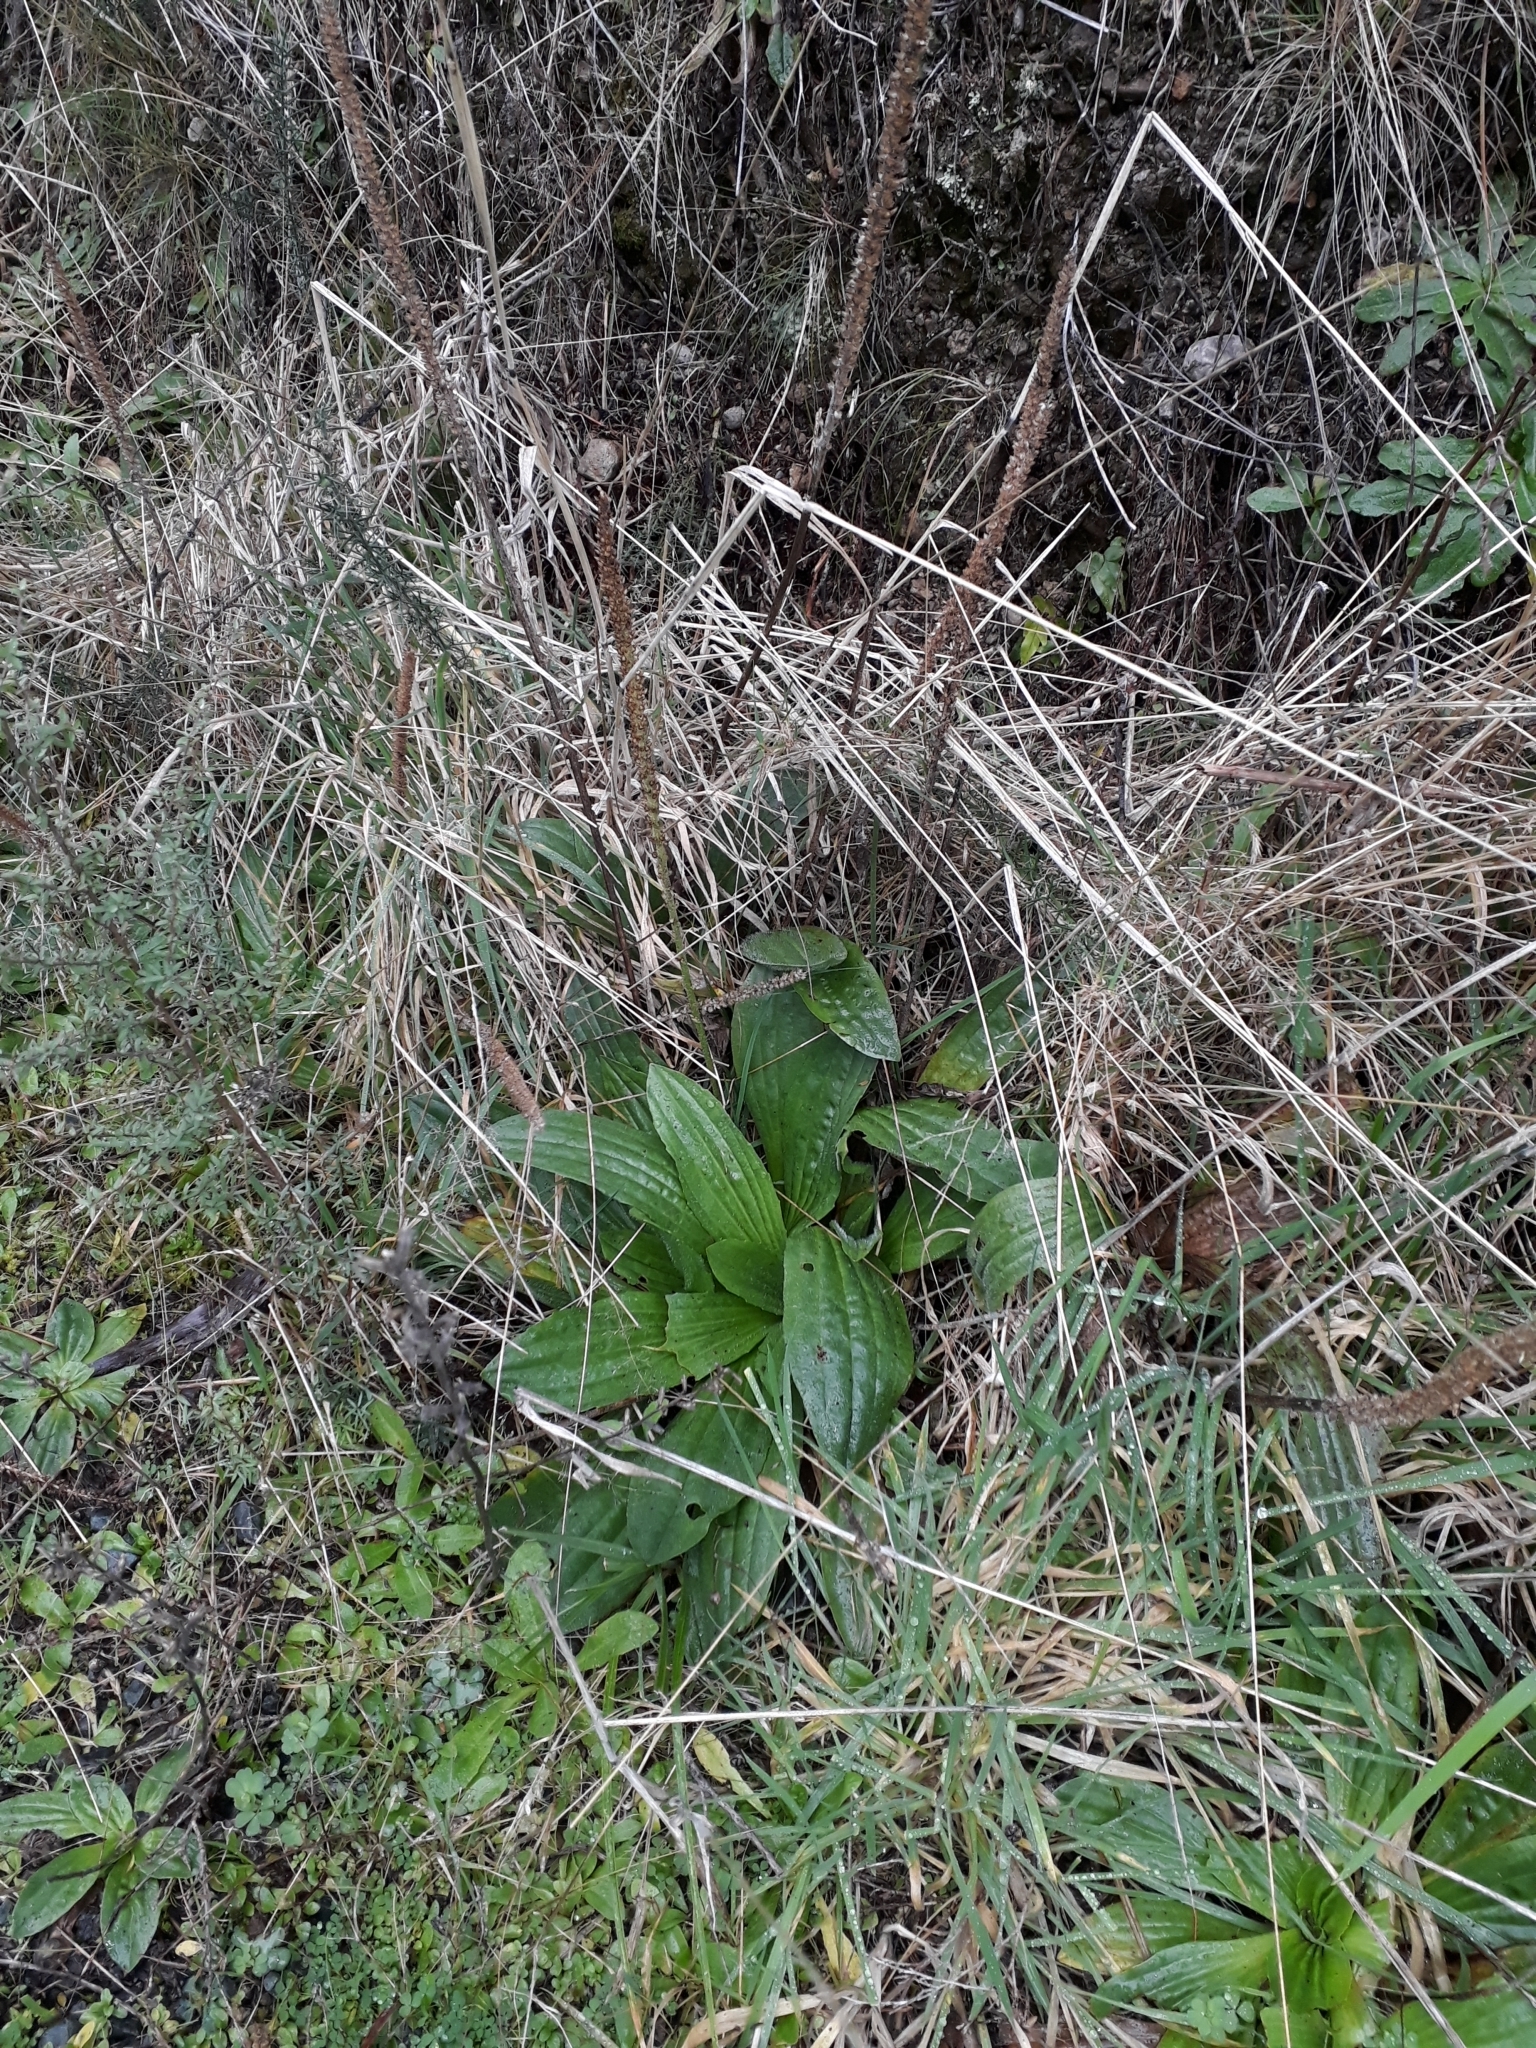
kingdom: Plantae
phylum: Tracheophyta
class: Magnoliopsida
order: Lamiales
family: Plantaginaceae
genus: Plantago
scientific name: Plantago australis
